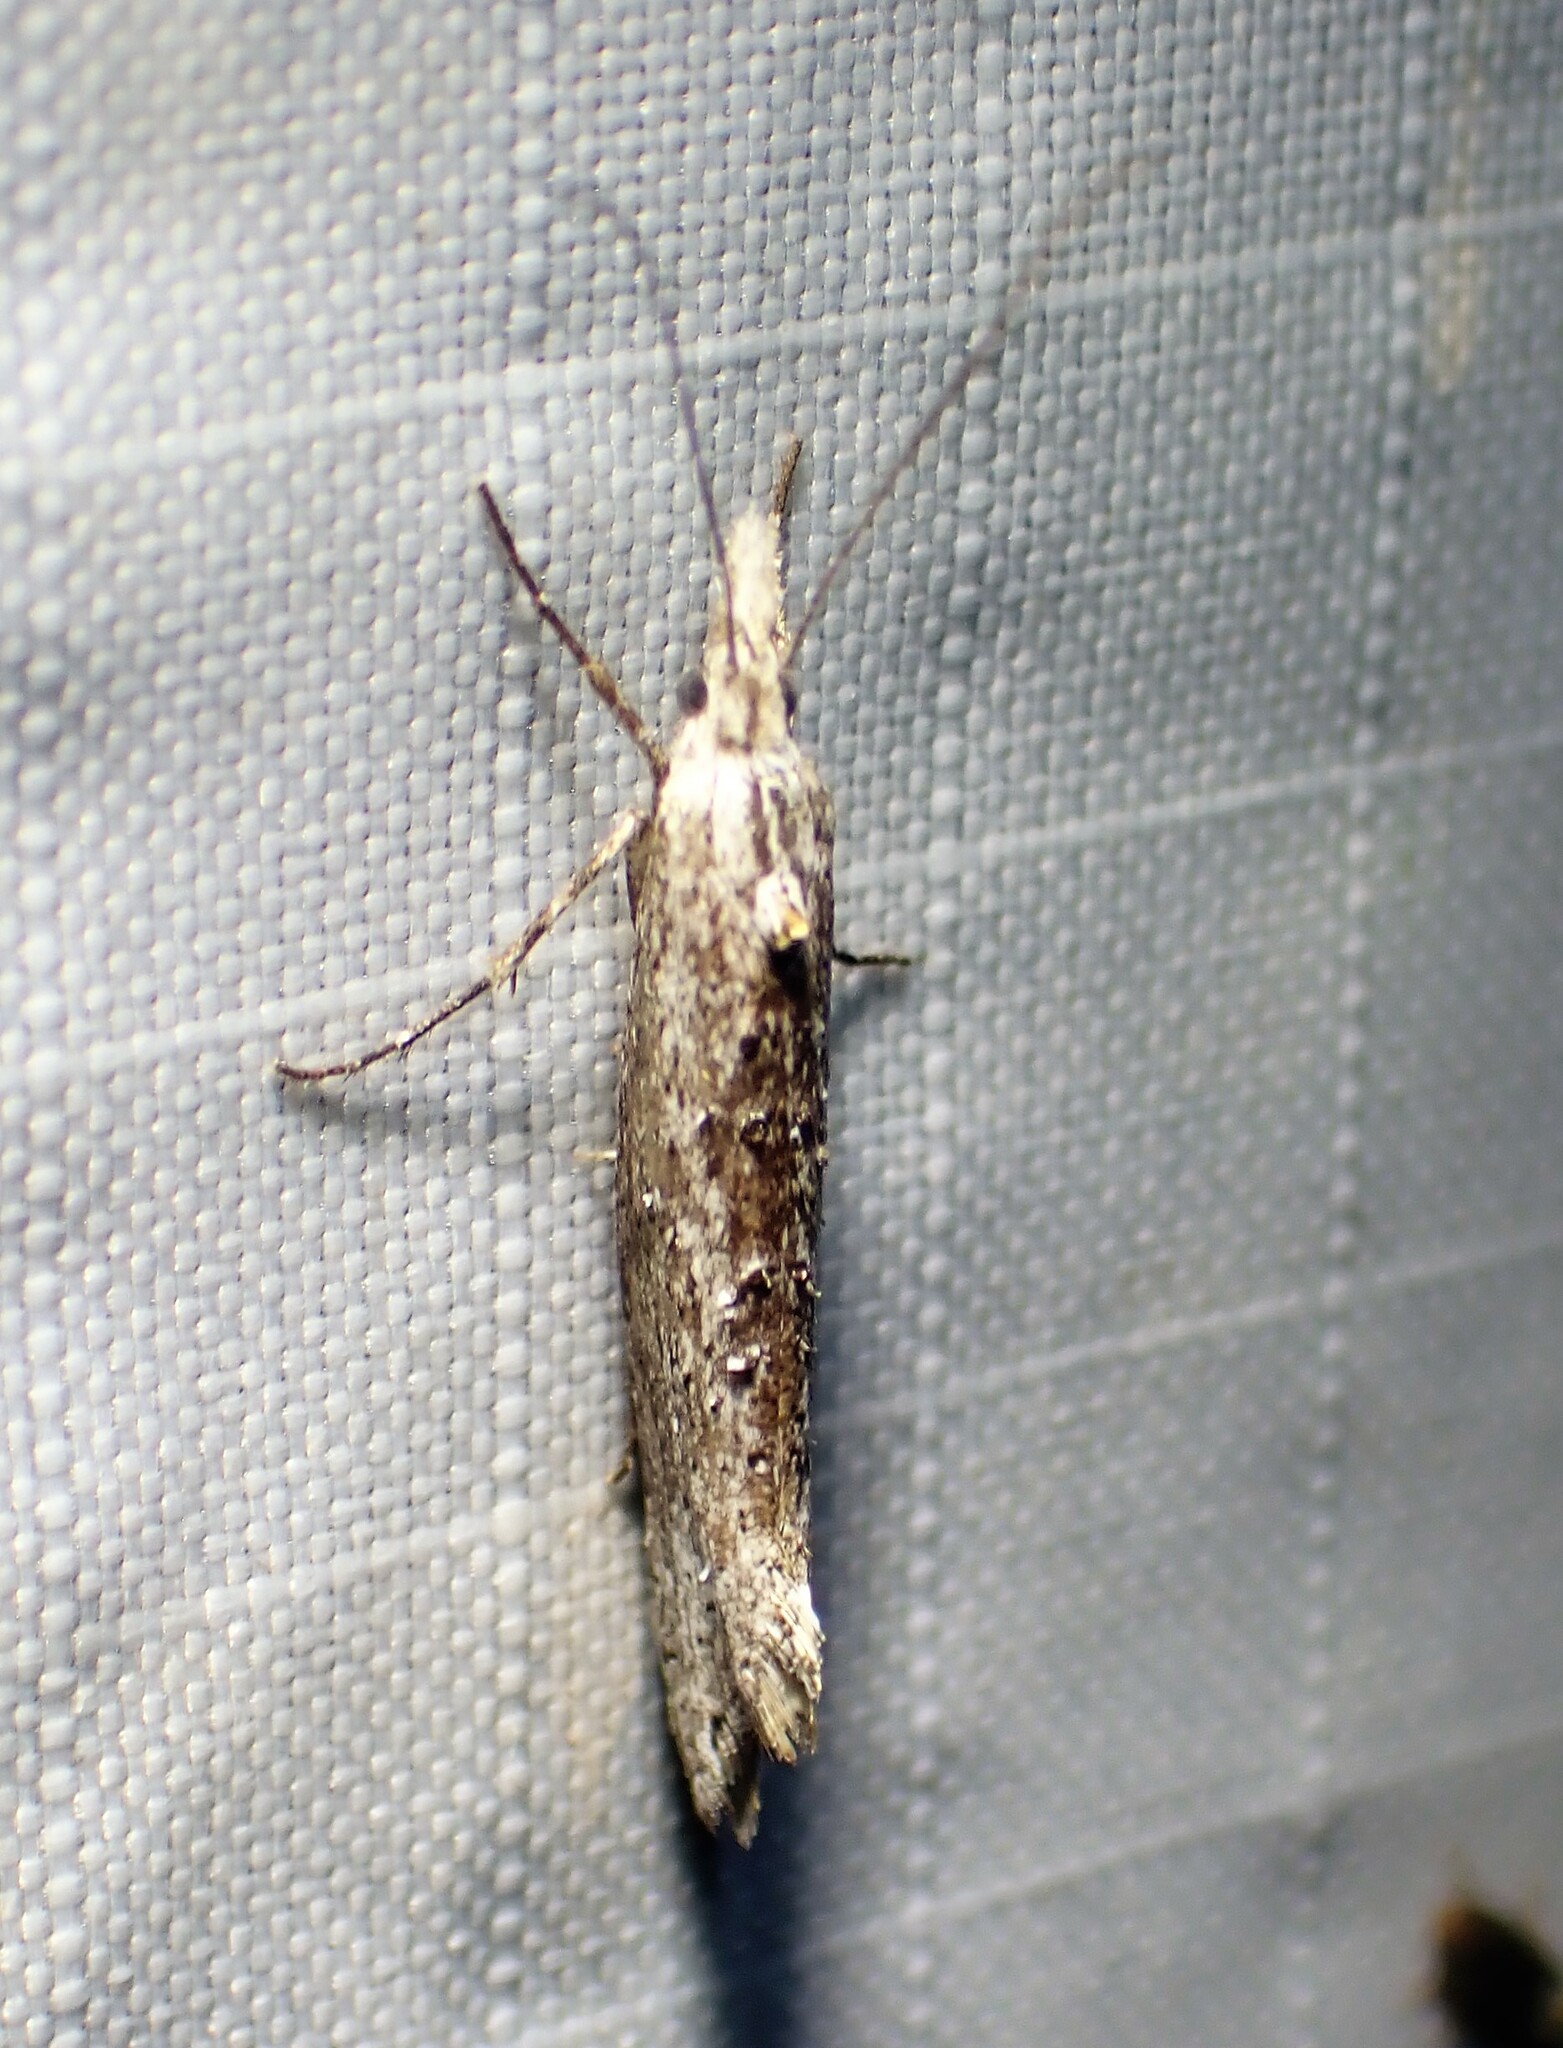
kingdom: Animalia
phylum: Arthropoda
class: Insecta
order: Lepidoptera
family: Ypsolophidae
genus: Ypsolopha
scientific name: Ypsolopha falciferella
